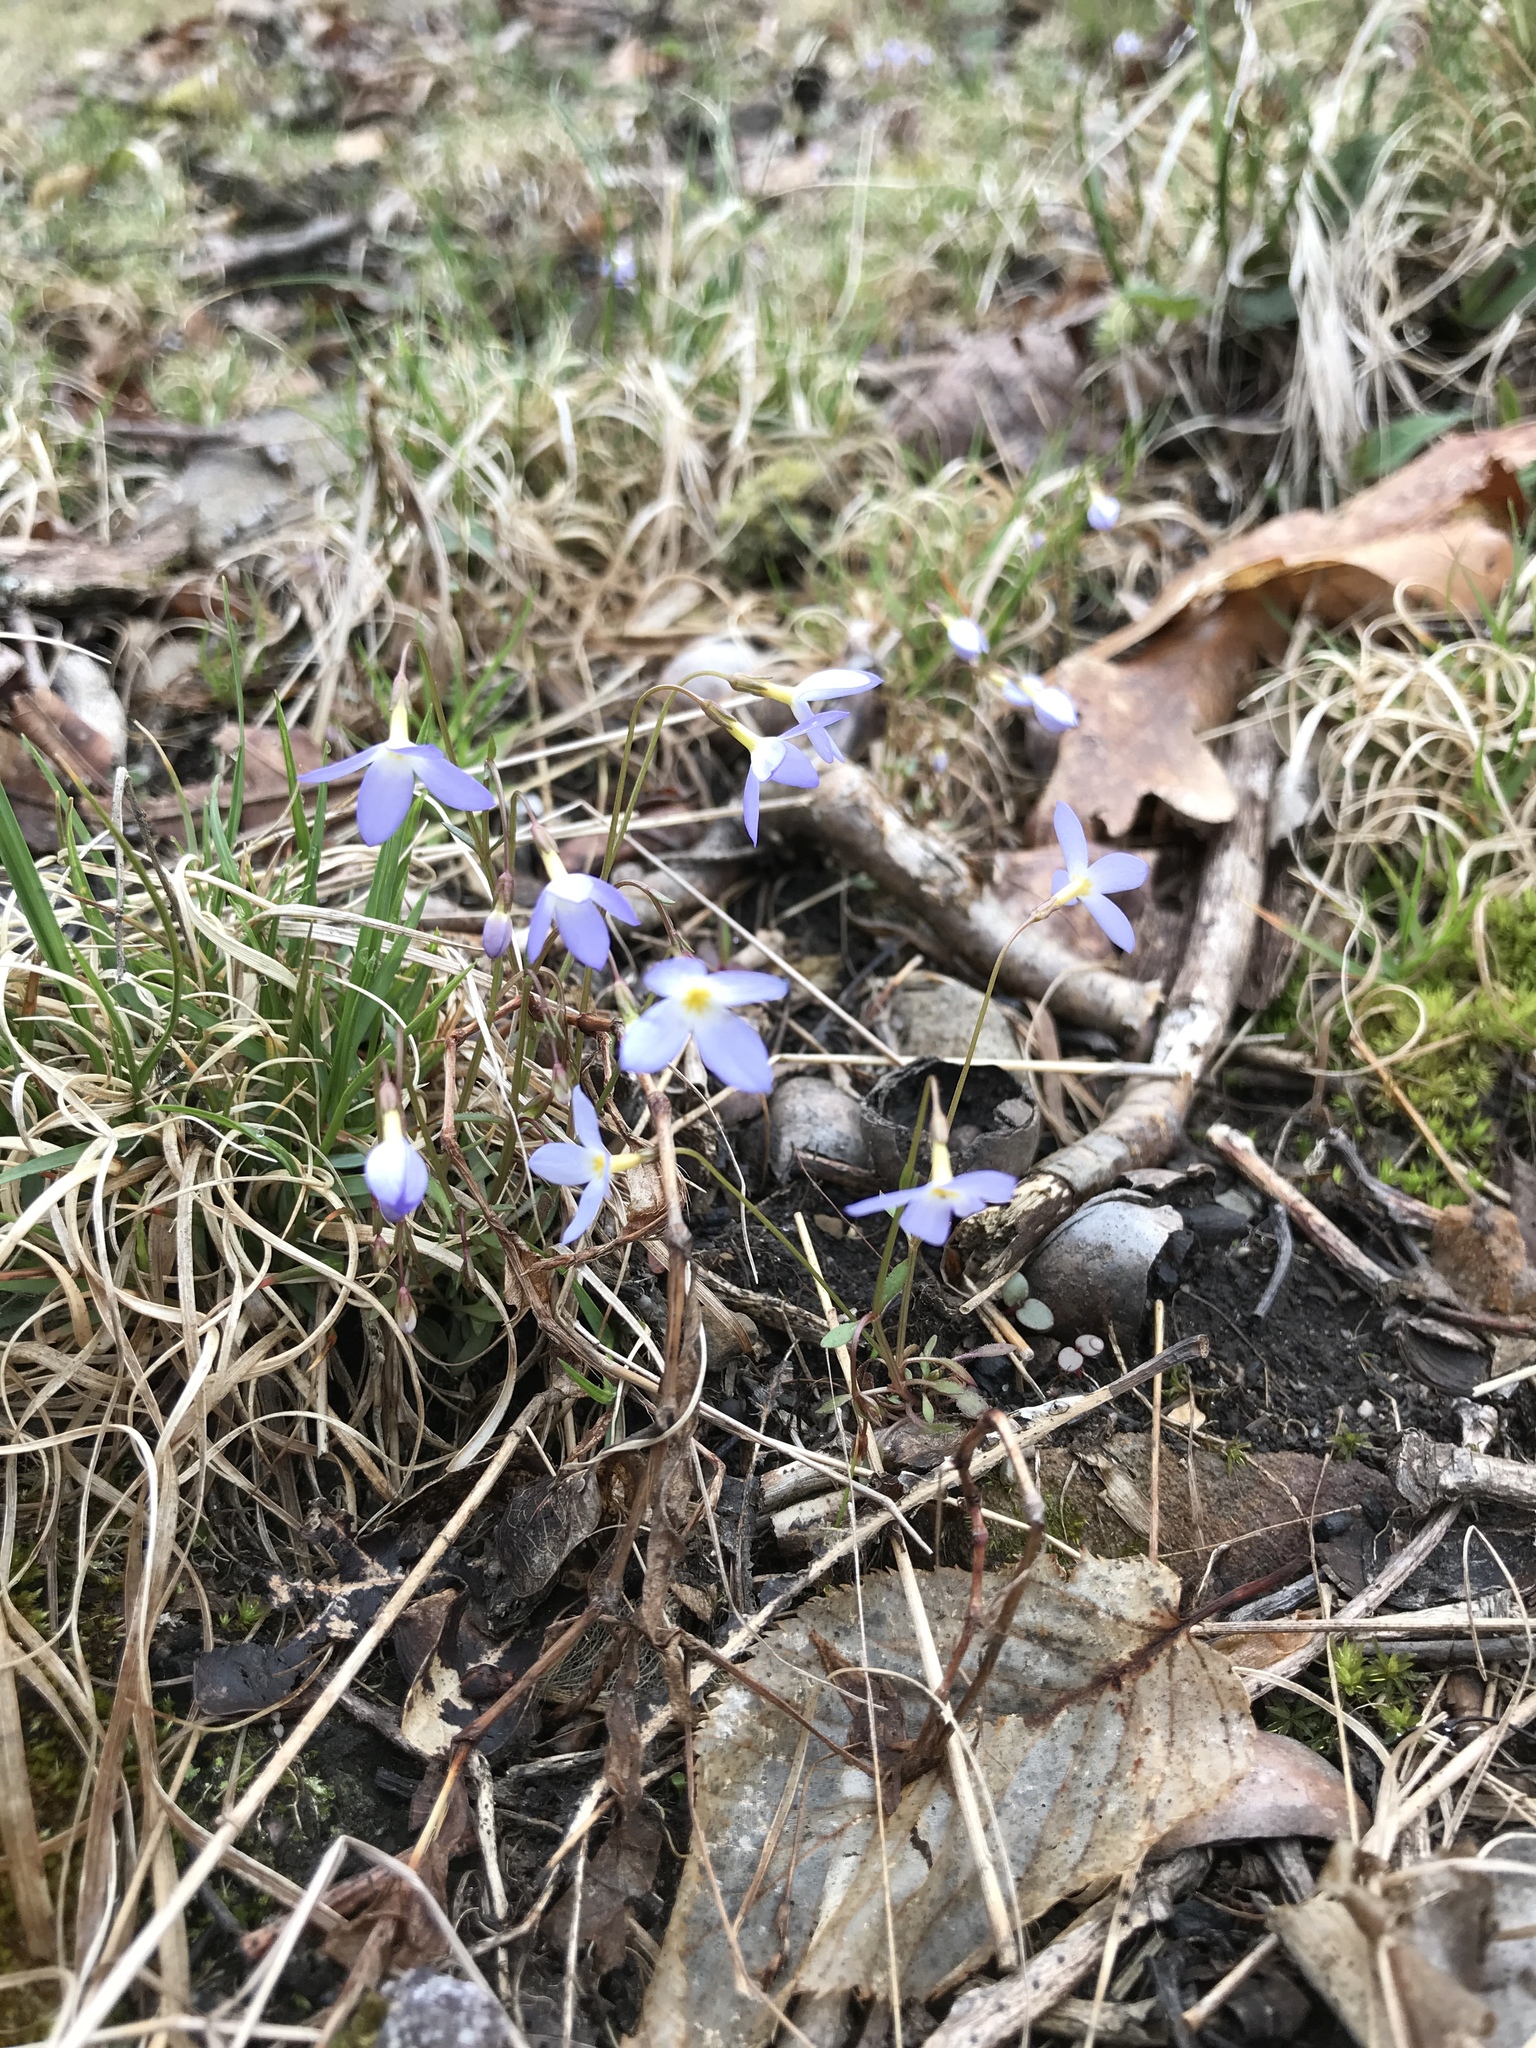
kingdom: Plantae
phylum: Tracheophyta
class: Magnoliopsida
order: Gentianales
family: Rubiaceae
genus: Houstonia
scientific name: Houstonia caerulea
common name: Bluets
